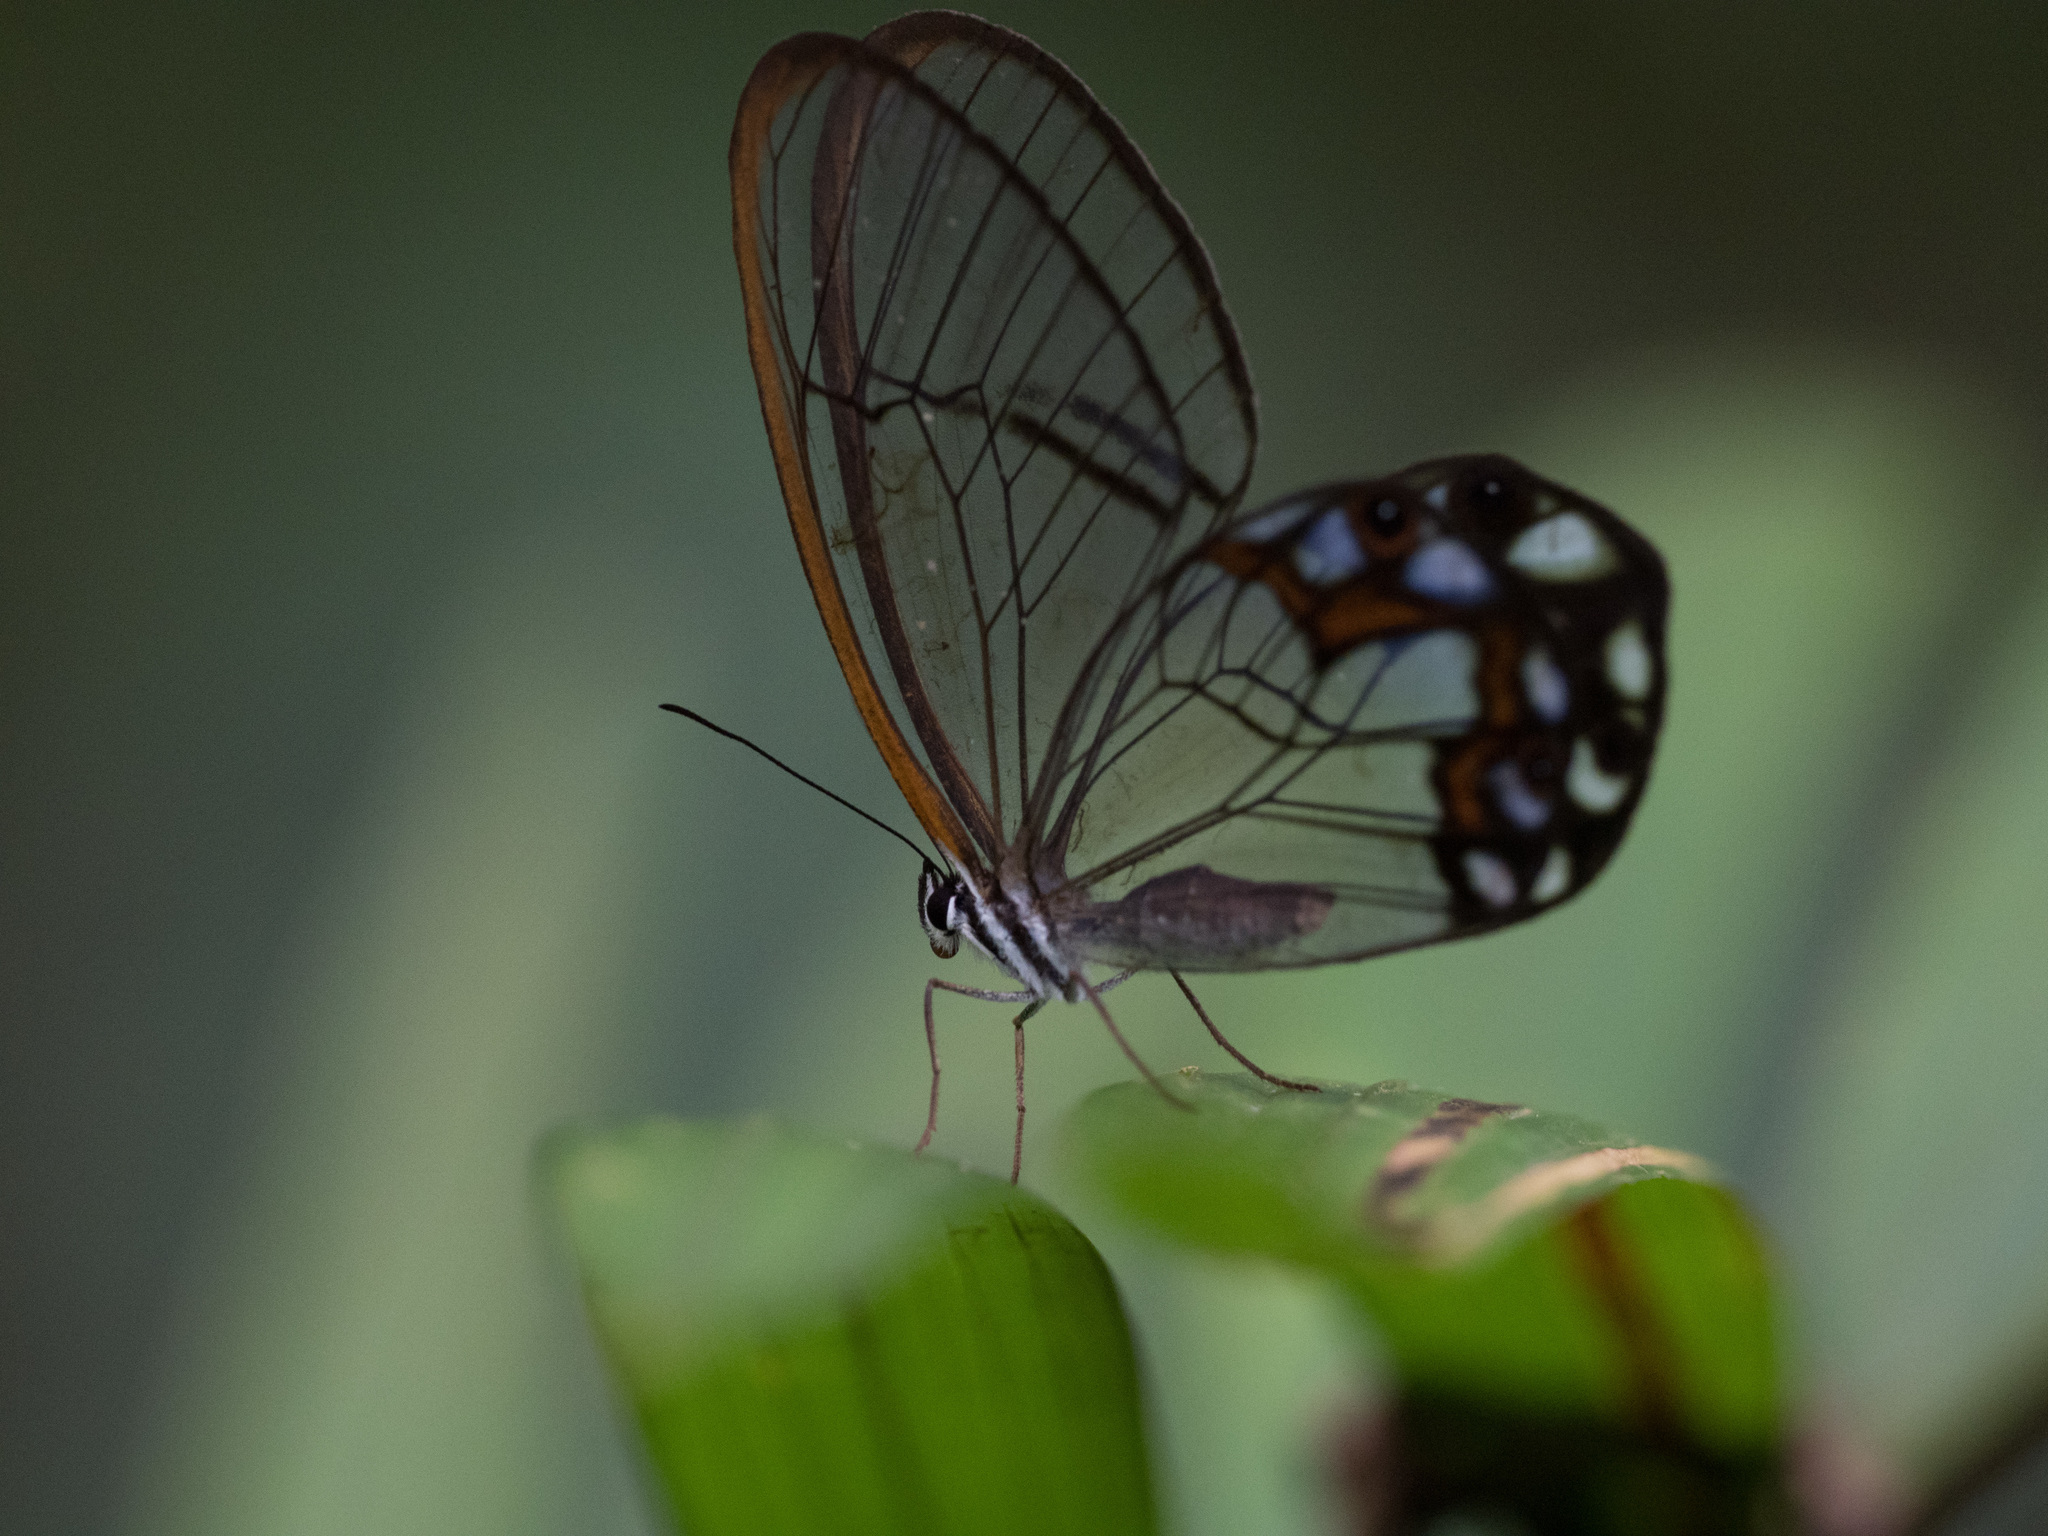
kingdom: Animalia
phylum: Arthropoda
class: Insecta
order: Lepidoptera
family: Nymphalidae
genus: Pseudohaetera
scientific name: Pseudohaetera hypaesia
